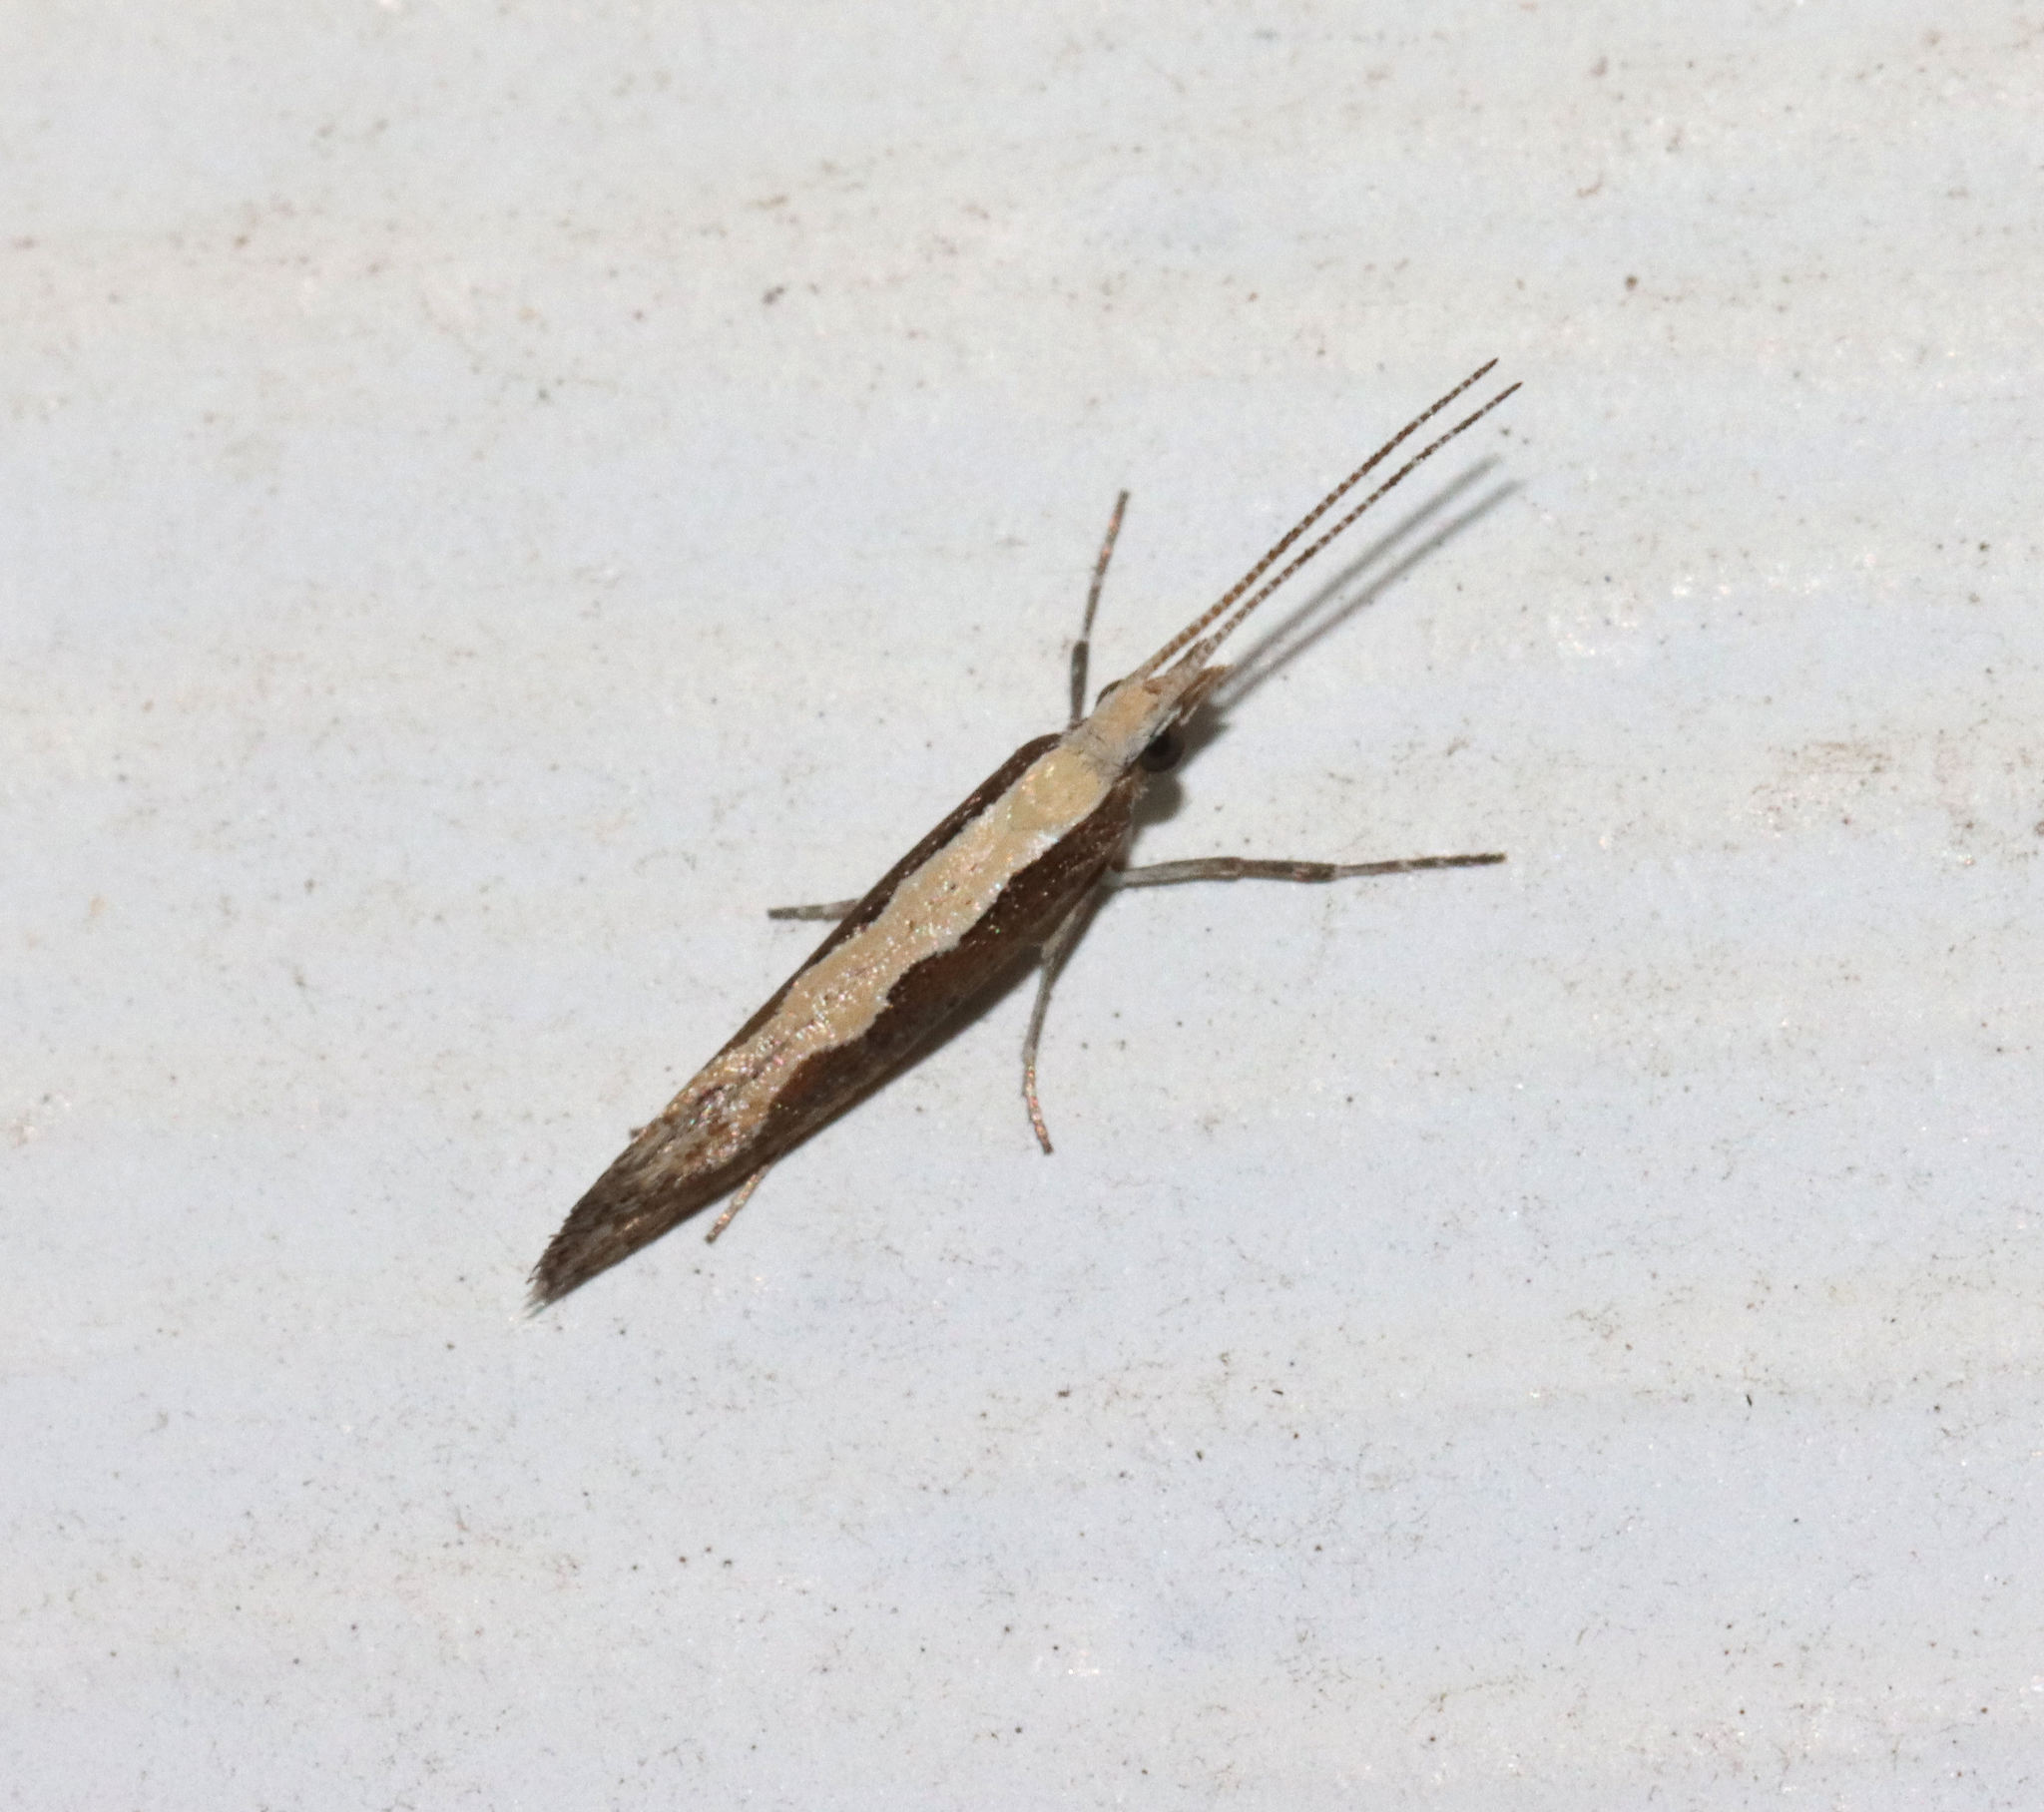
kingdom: Animalia
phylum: Arthropoda
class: Insecta
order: Lepidoptera
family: Plutellidae
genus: Plutella
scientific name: Plutella xylostella
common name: Diamond-back moth
